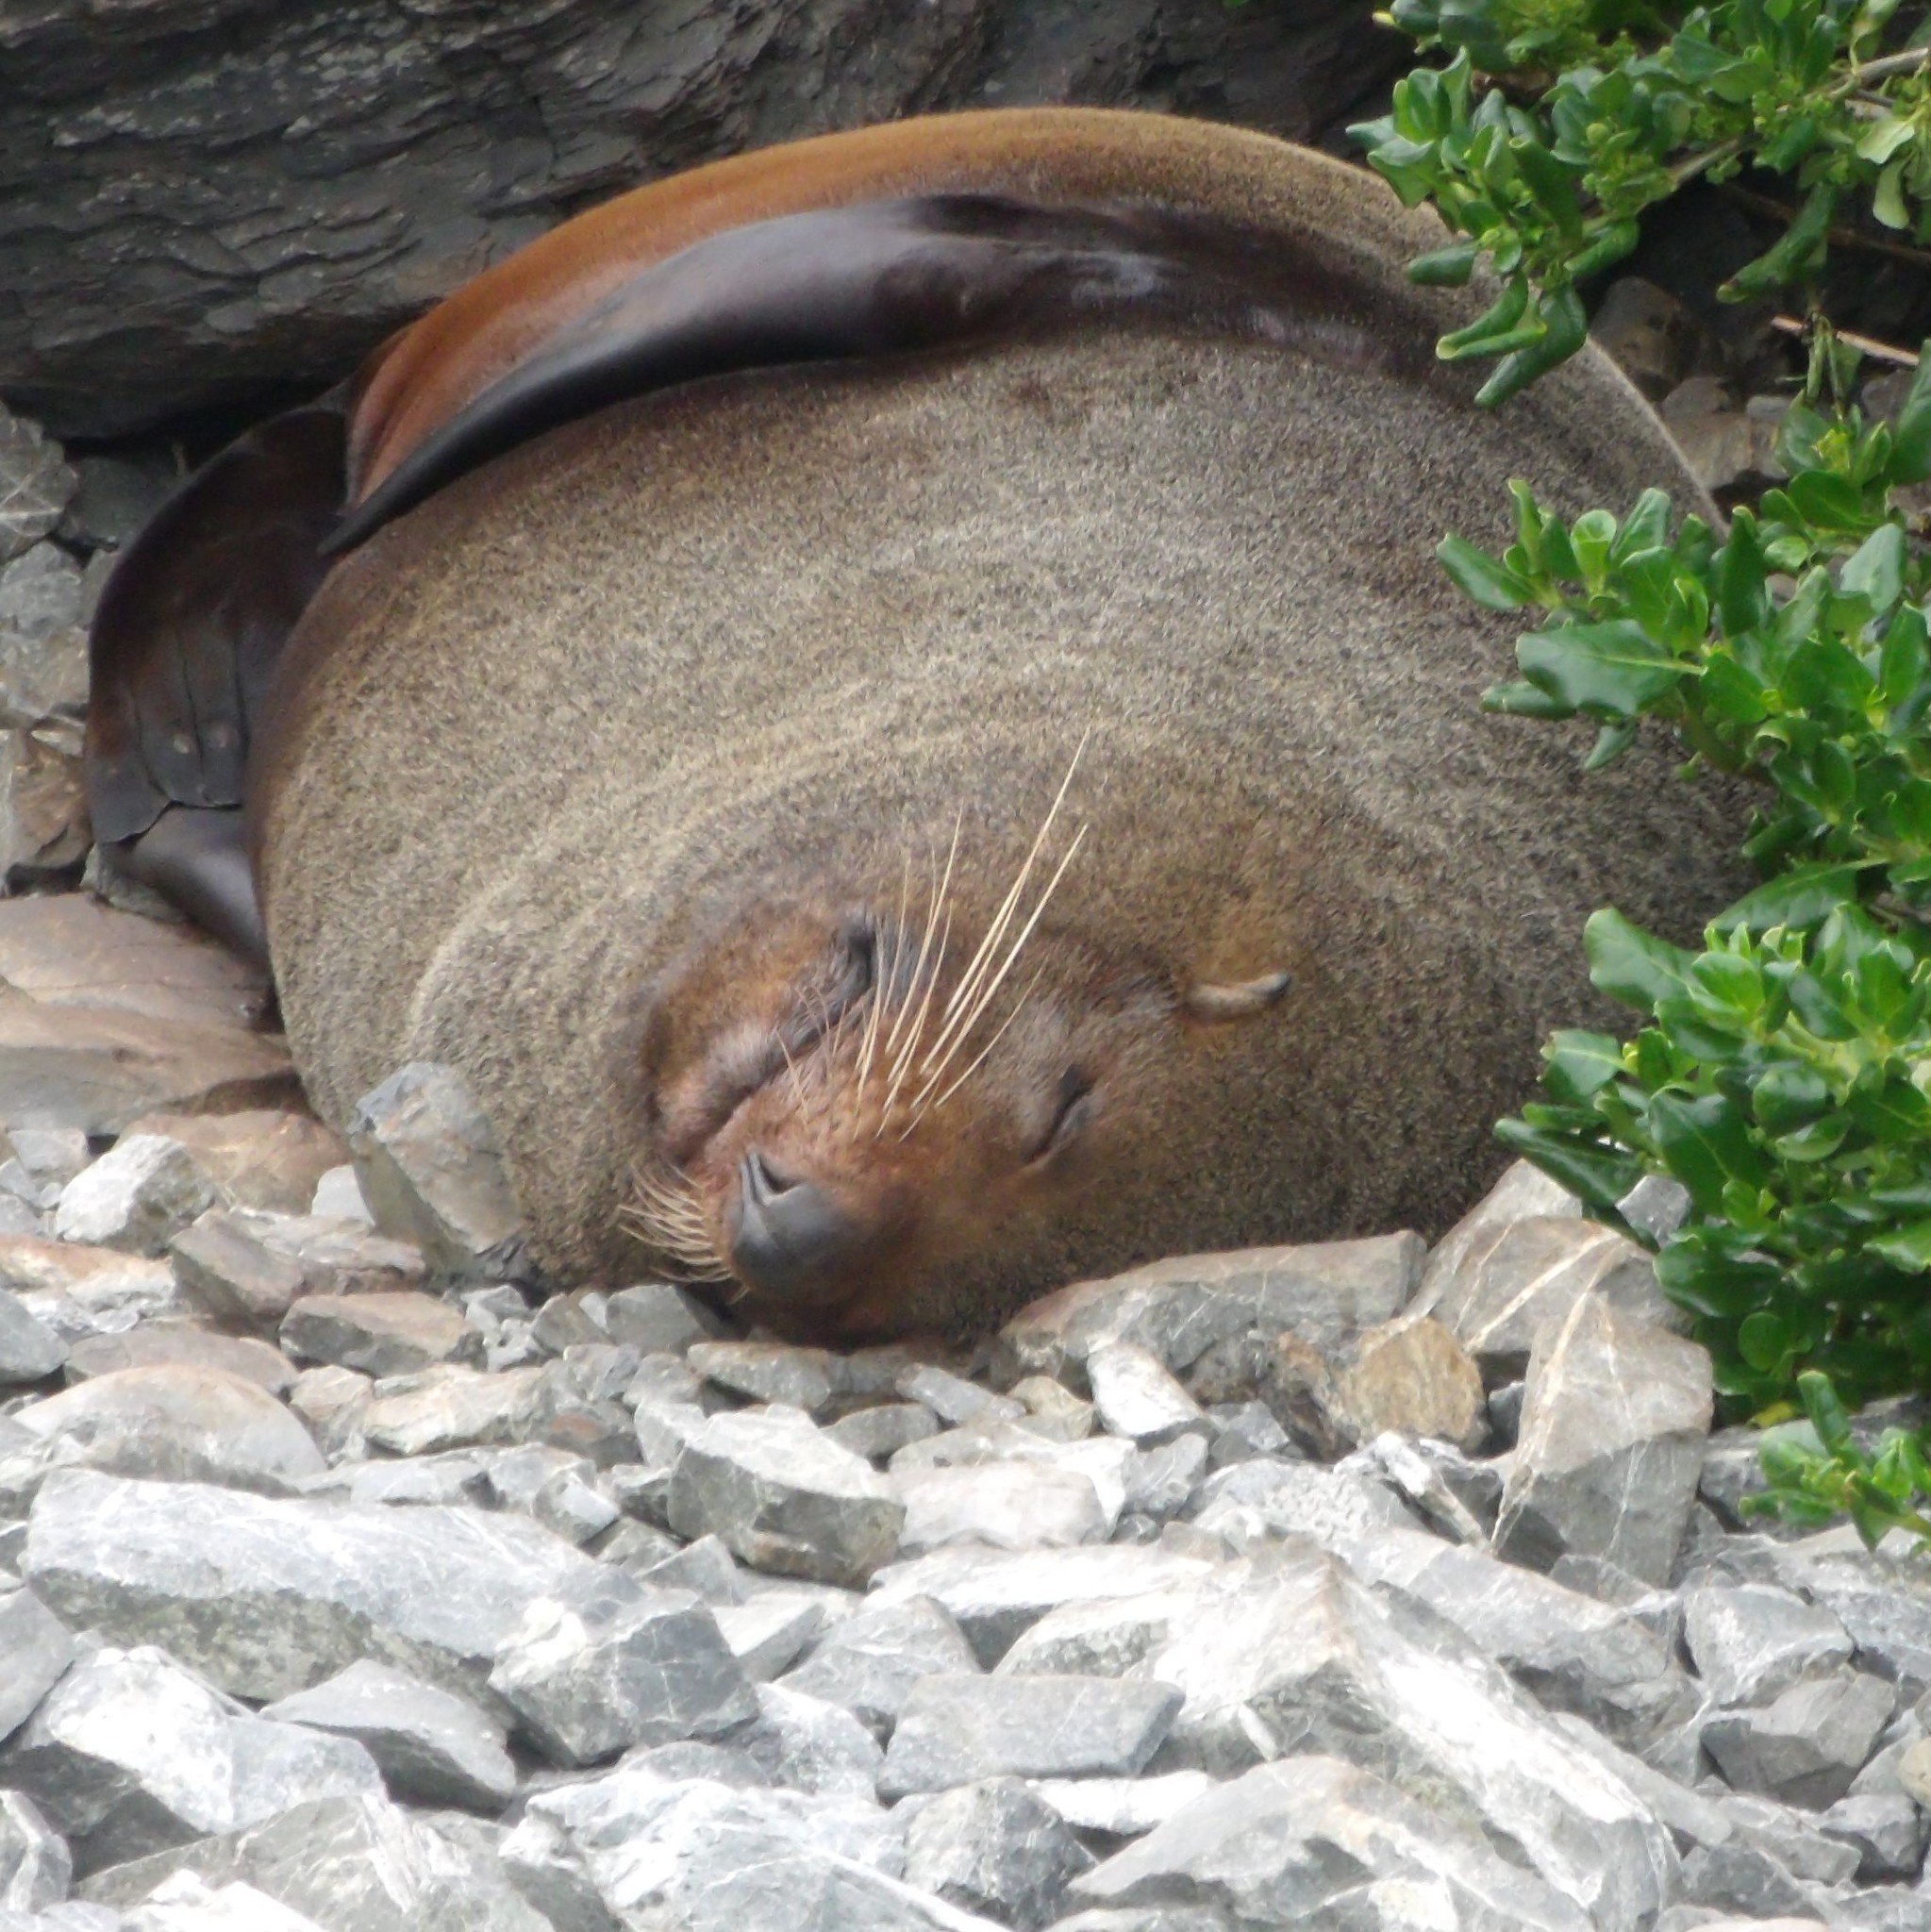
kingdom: Animalia
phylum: Chordata
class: Mammalia
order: Carnivora
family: Otariidae
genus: Arctocephalus
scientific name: Arctocephalus forsteri
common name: New zealand fur seal
